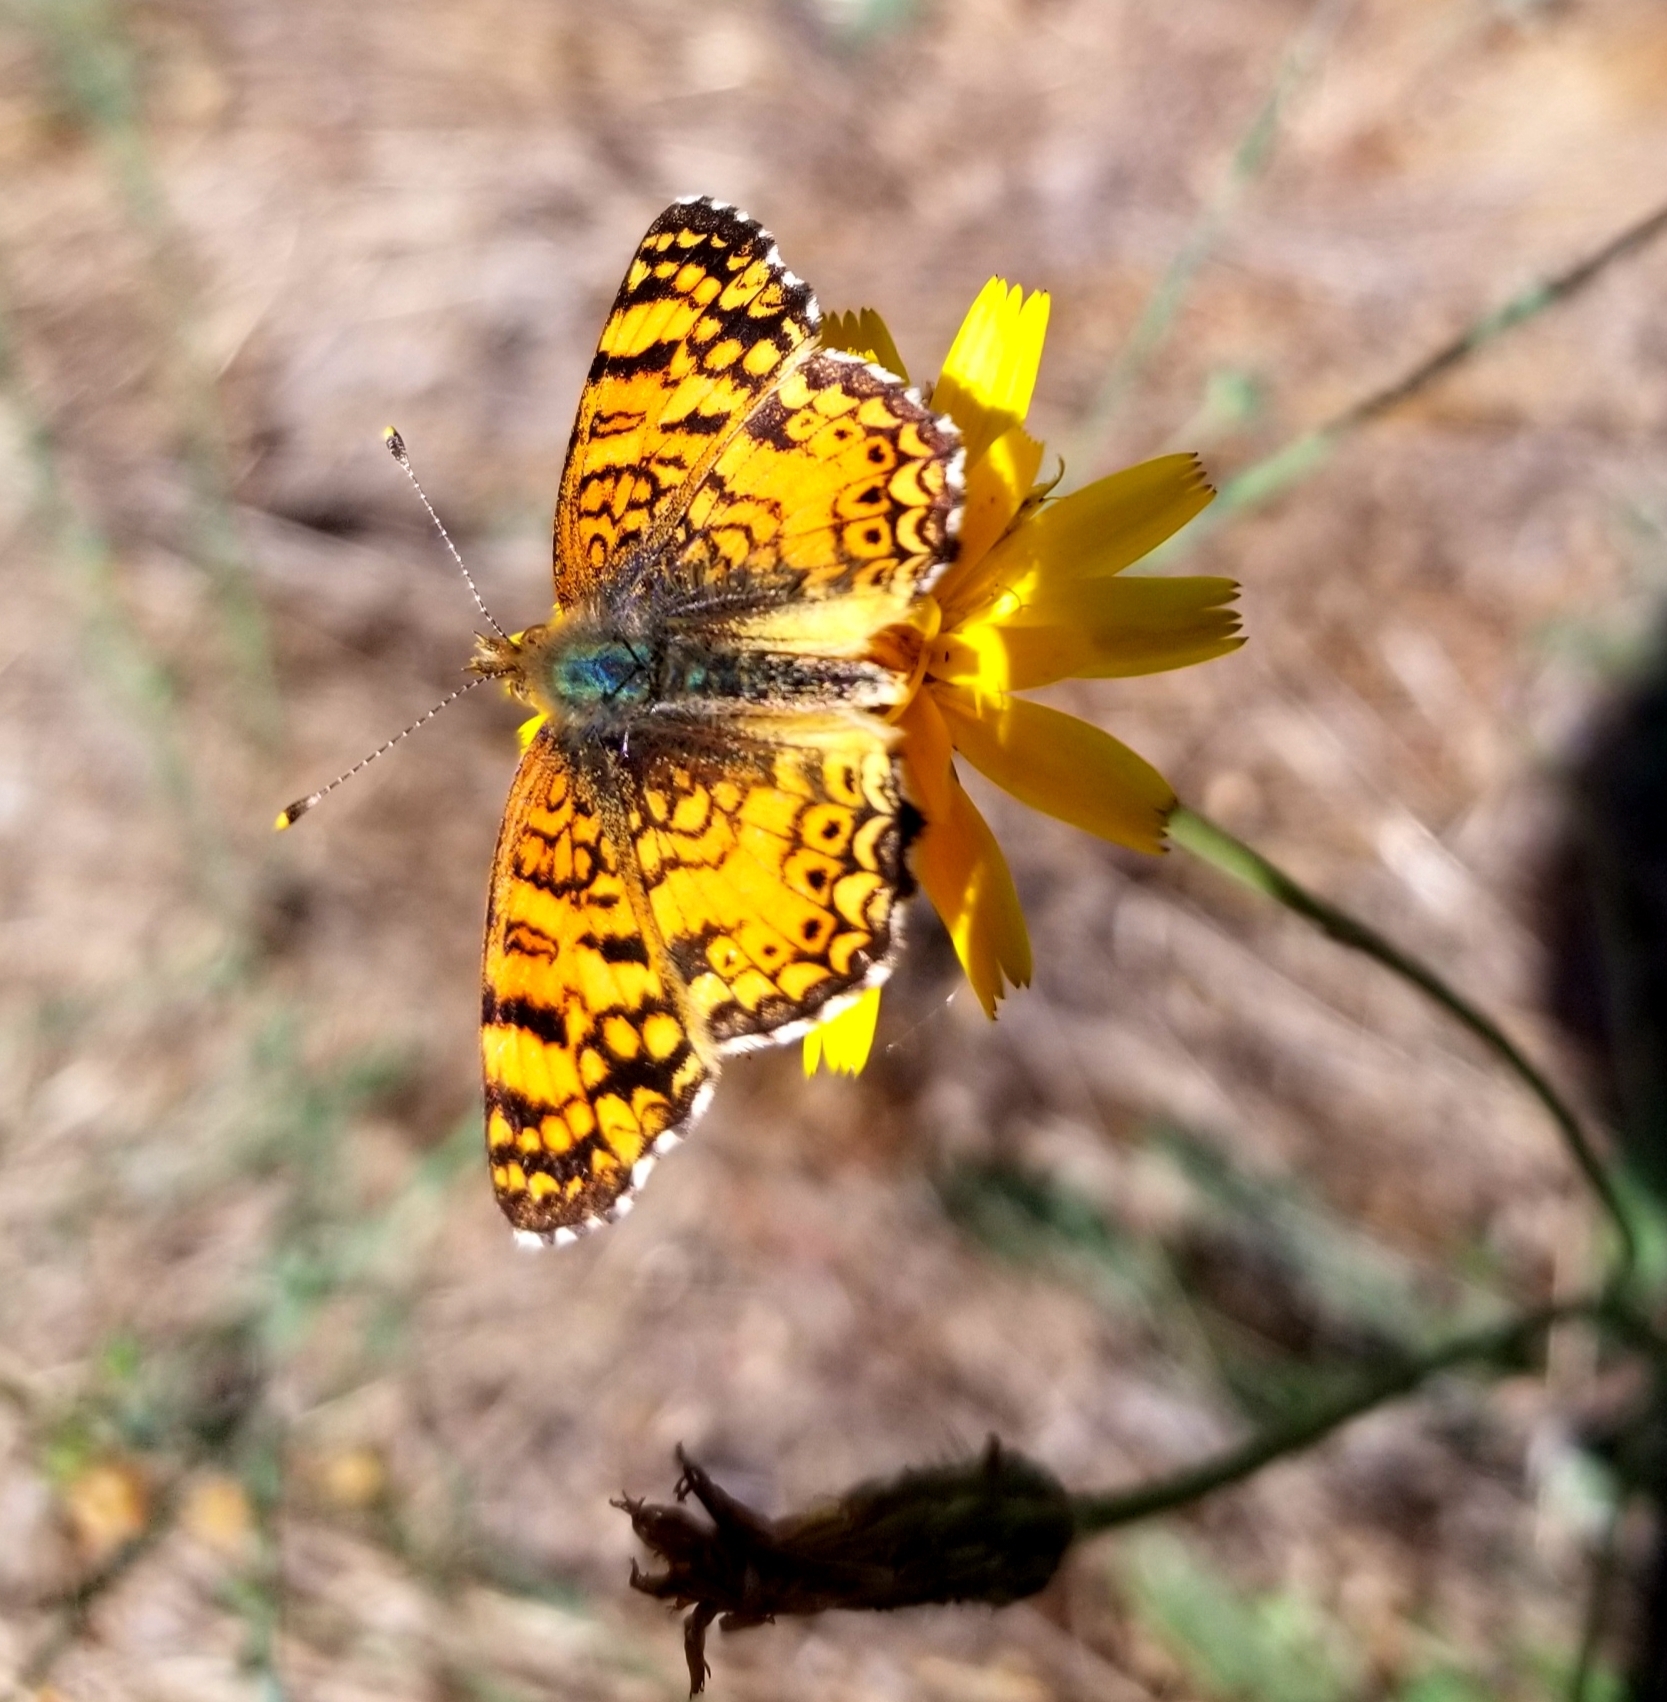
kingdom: Animalia
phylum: Arthropoda
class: Insecta
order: Lepidoptera
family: Nymphalidae
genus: Eresia
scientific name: Eresia aveyrona
